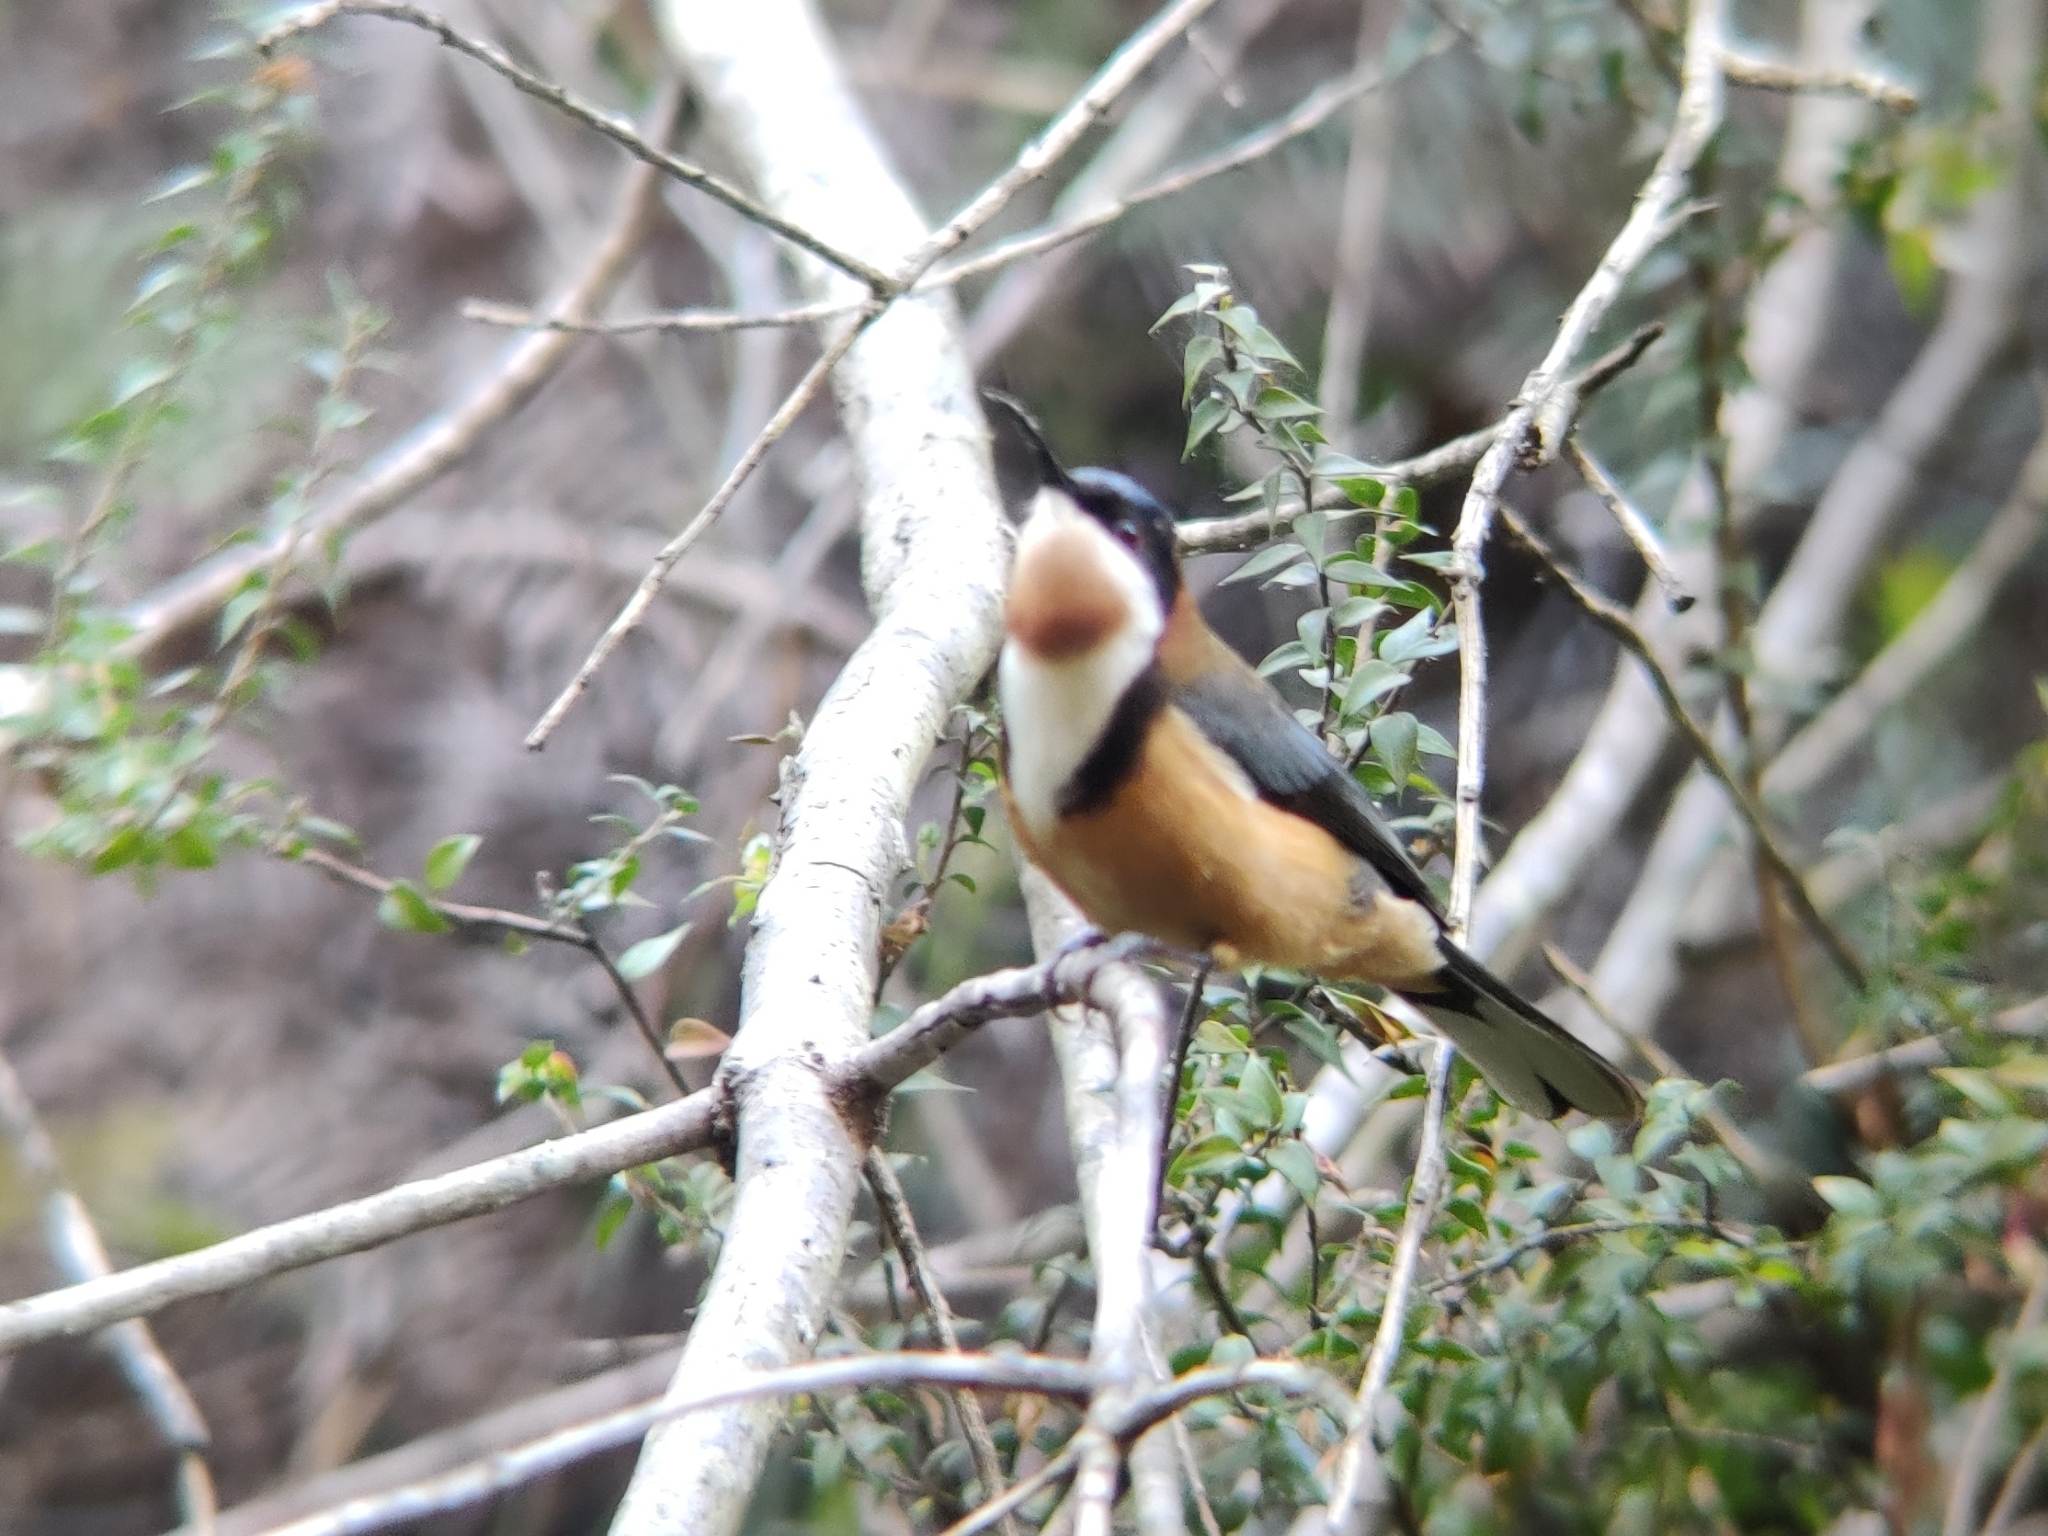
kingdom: Animalia
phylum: Chordata
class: Aves
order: Passeriformes
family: Meliphagidae
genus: Acanthorhynchus
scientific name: Acanthorhynchus tenuirostris
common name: Eastern spinebill
